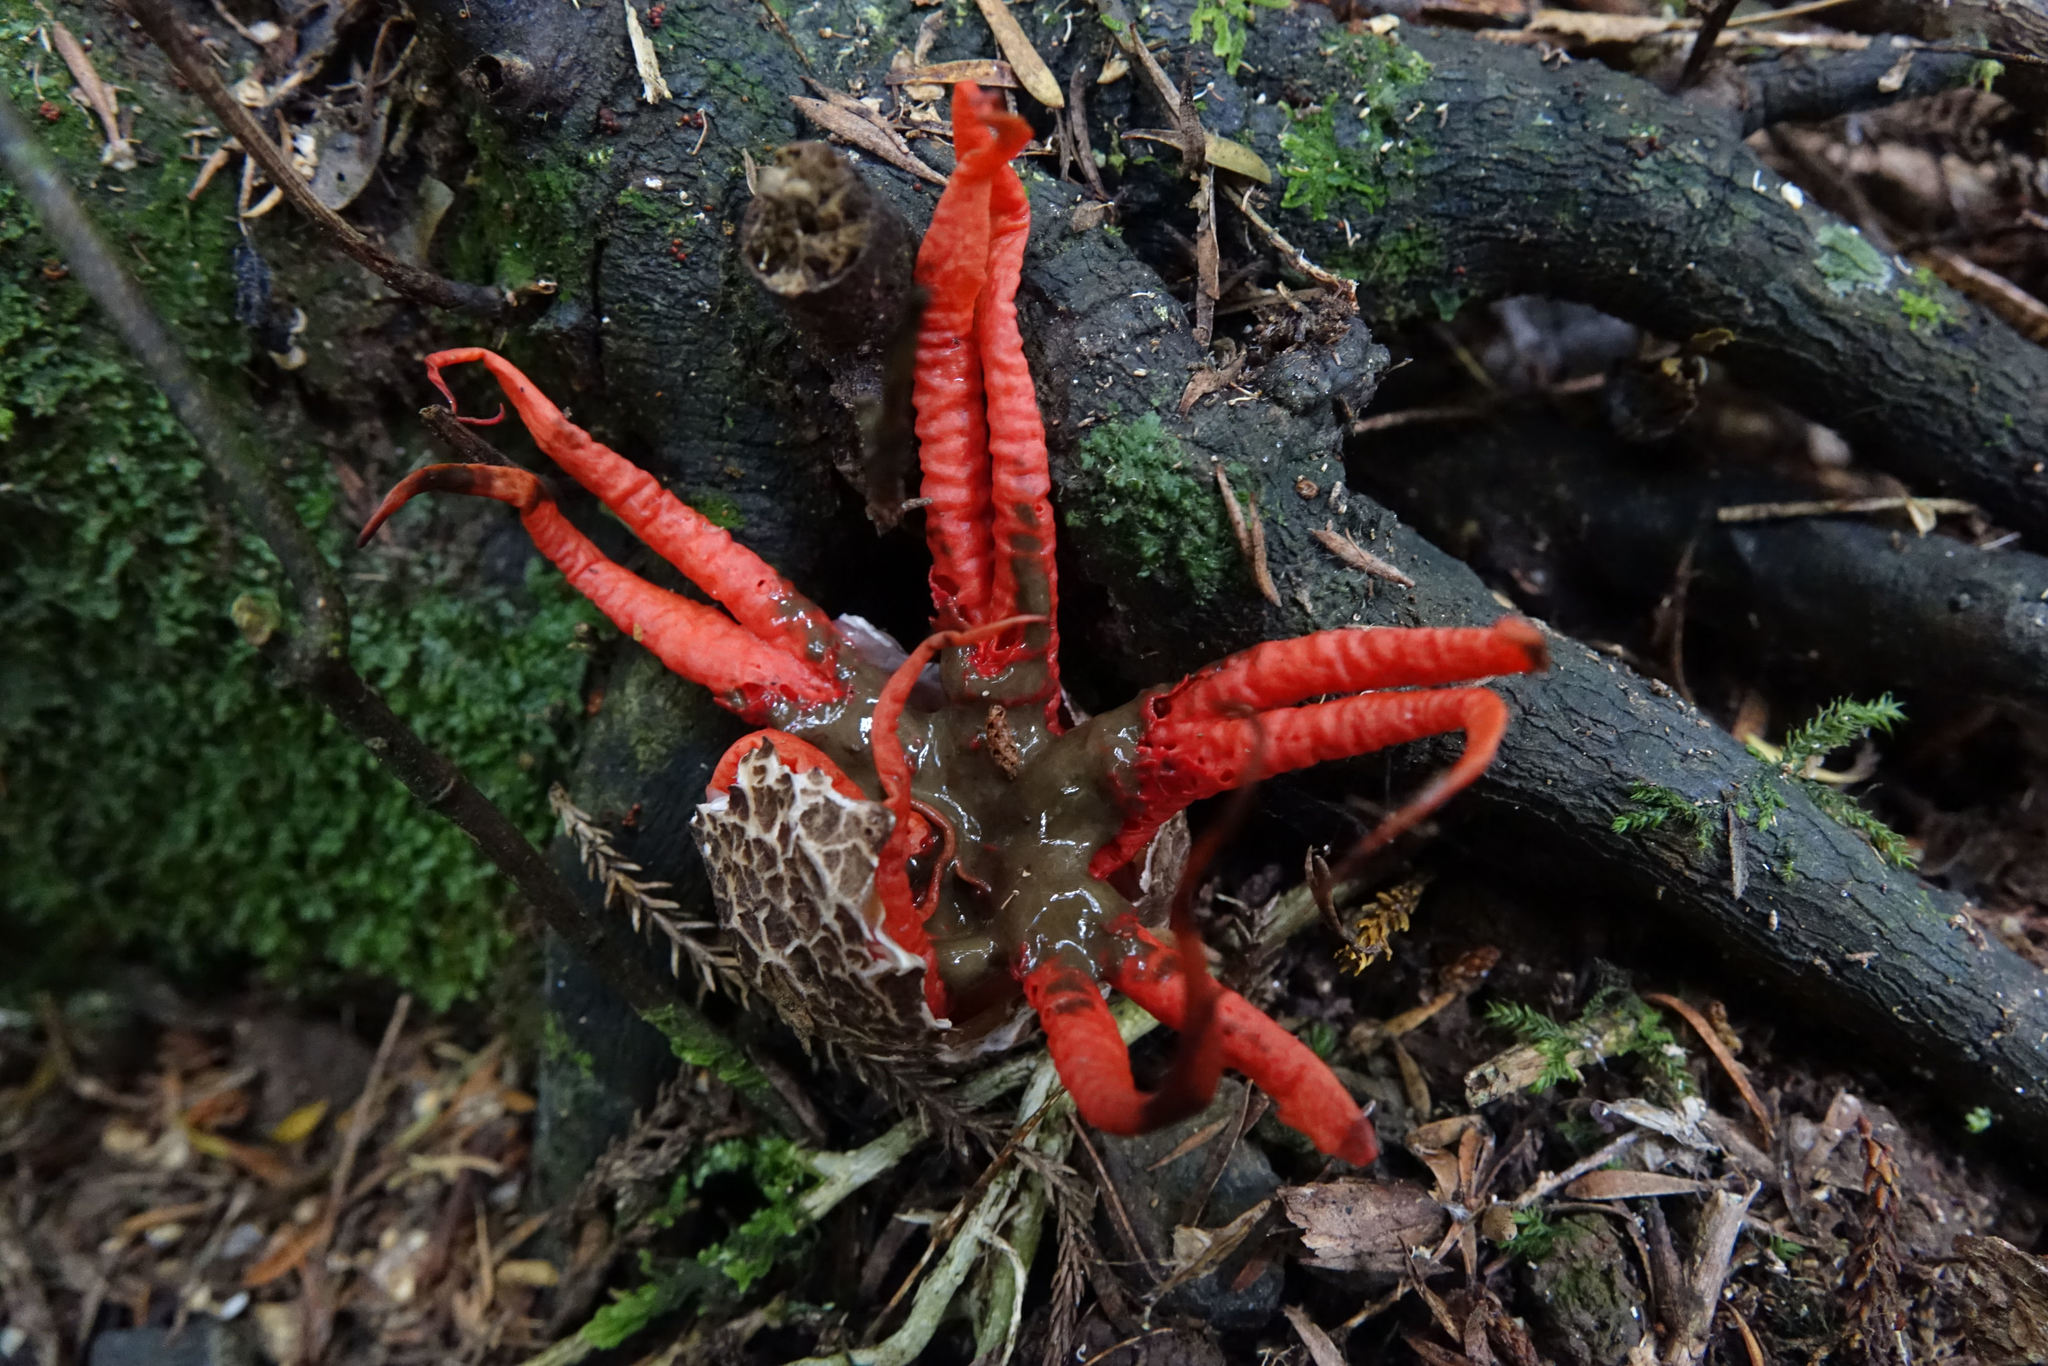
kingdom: Fungi
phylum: Basidiomycota
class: Agaricomycetes
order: Phallales
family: Phallaceae
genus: Aseroe
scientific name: Aseroe rubra
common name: Starfish fungus
